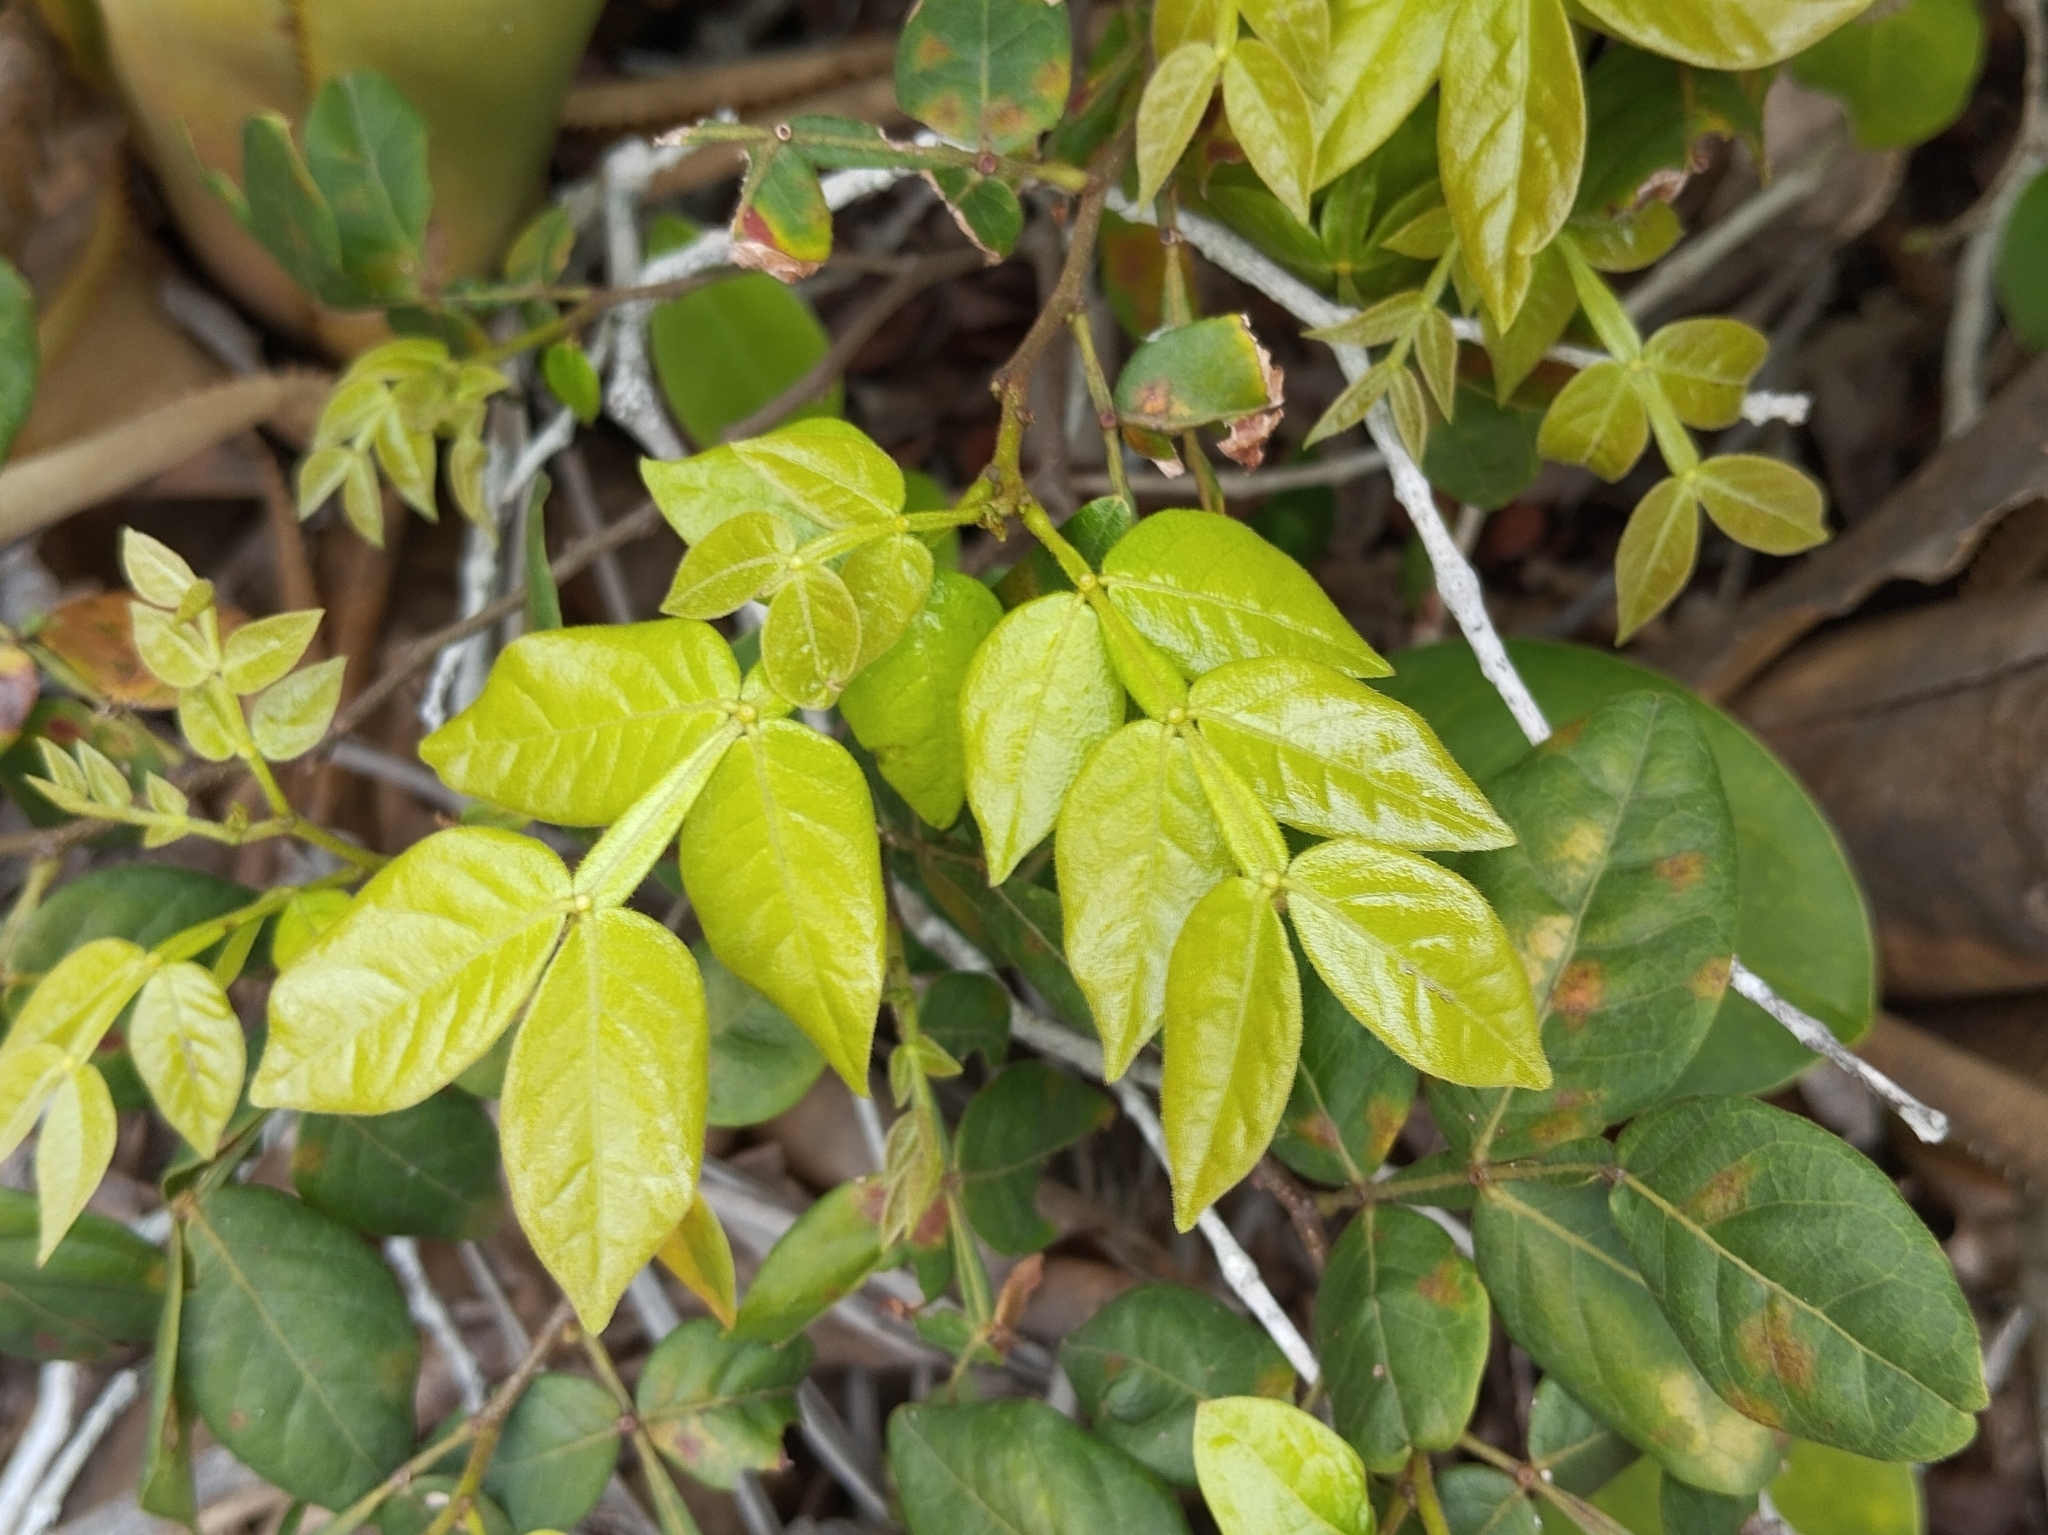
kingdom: Plantae
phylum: Tracheophyta
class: Magnoliopsida
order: Fabales
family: Fabaceae
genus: Inga
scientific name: Inga edulis
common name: Ice cream bean
